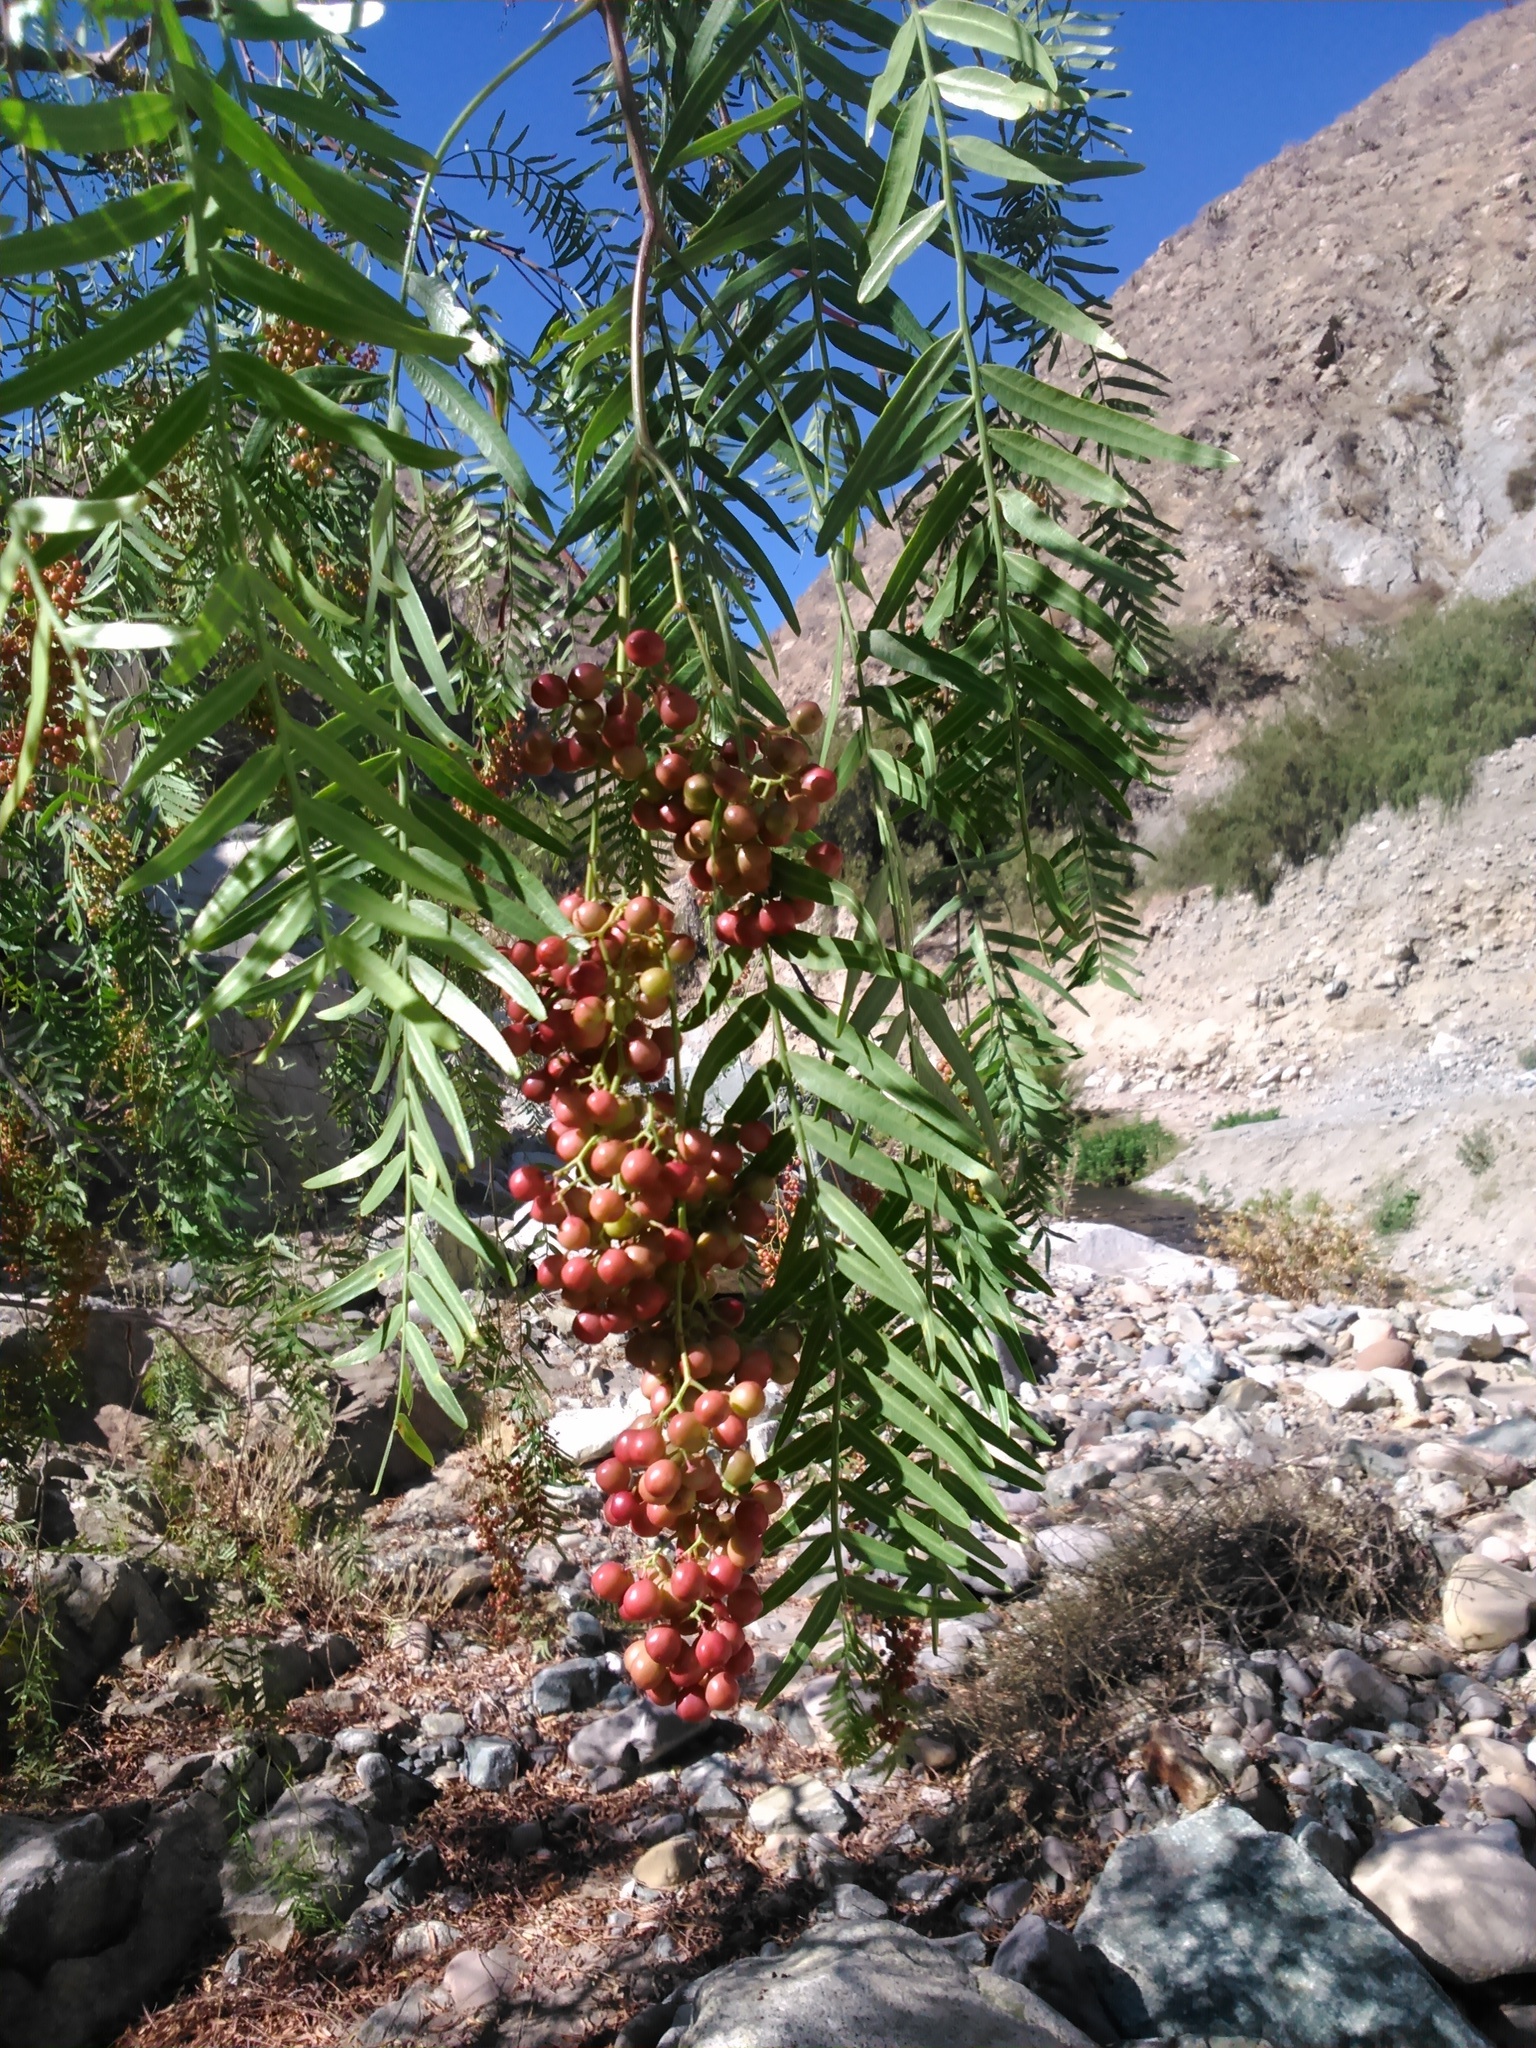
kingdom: Plantae
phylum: Tracheophyta
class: Magnoliopsida
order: Sapindales
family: Anacardiaceae
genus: Schinus
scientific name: Schinus molle
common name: Peruvian peppertree
